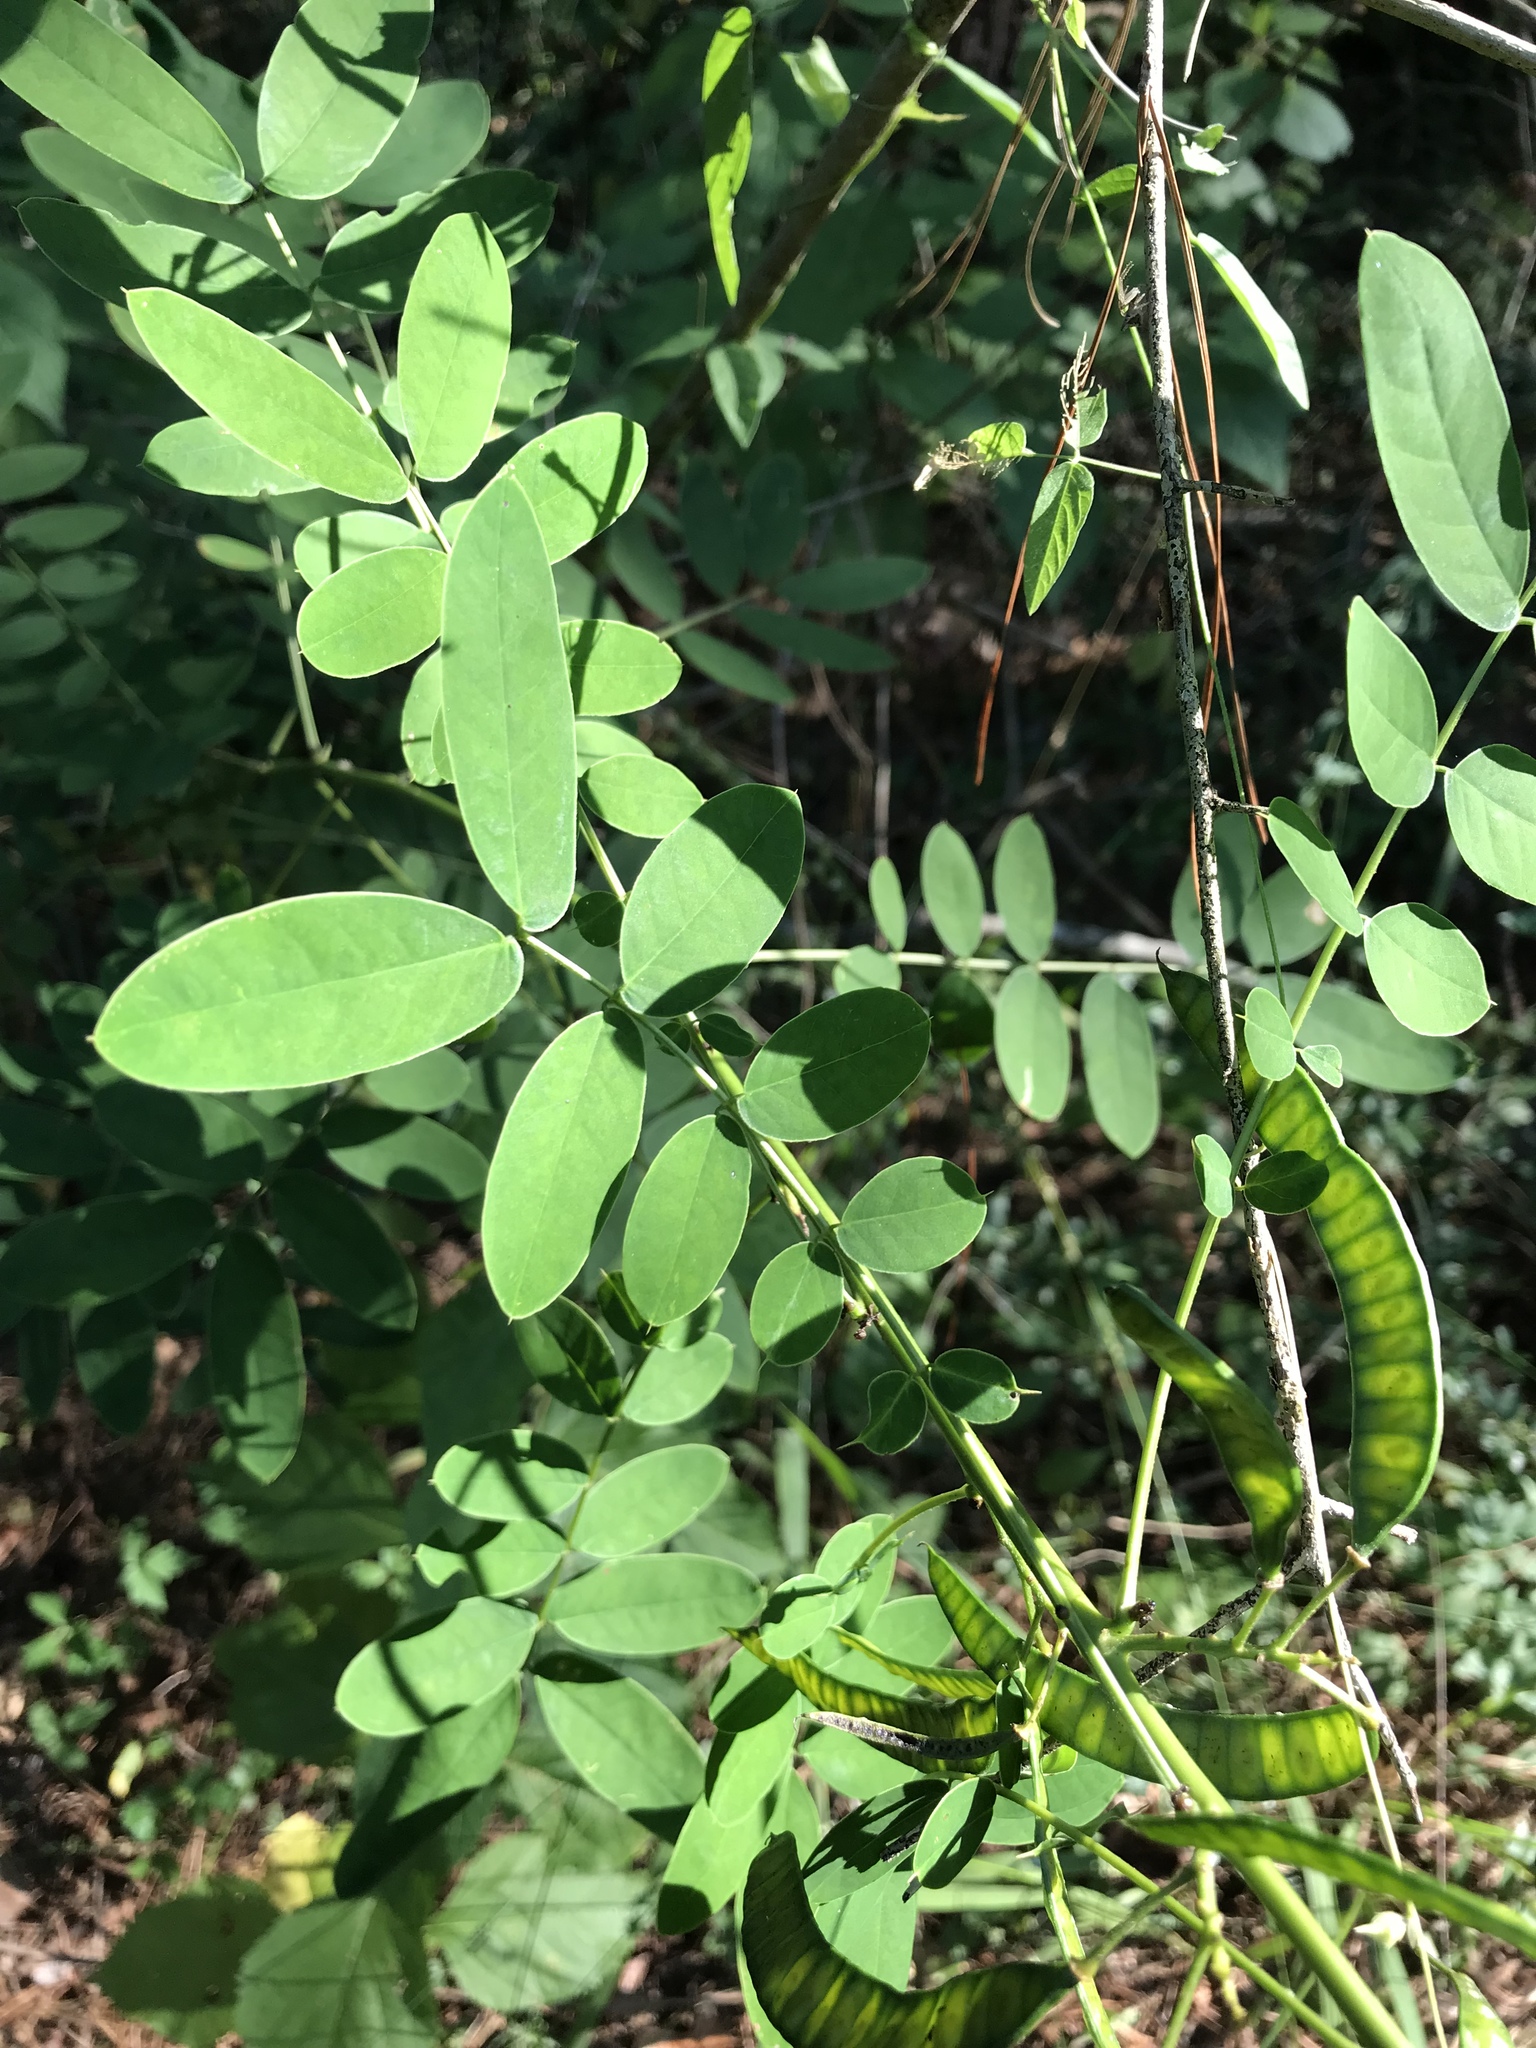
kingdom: Plantae
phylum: Tracheophyta
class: Magnoliopsida
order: Fabales
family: Fabaceae
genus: Senna
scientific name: Senna marilandica
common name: American senna
